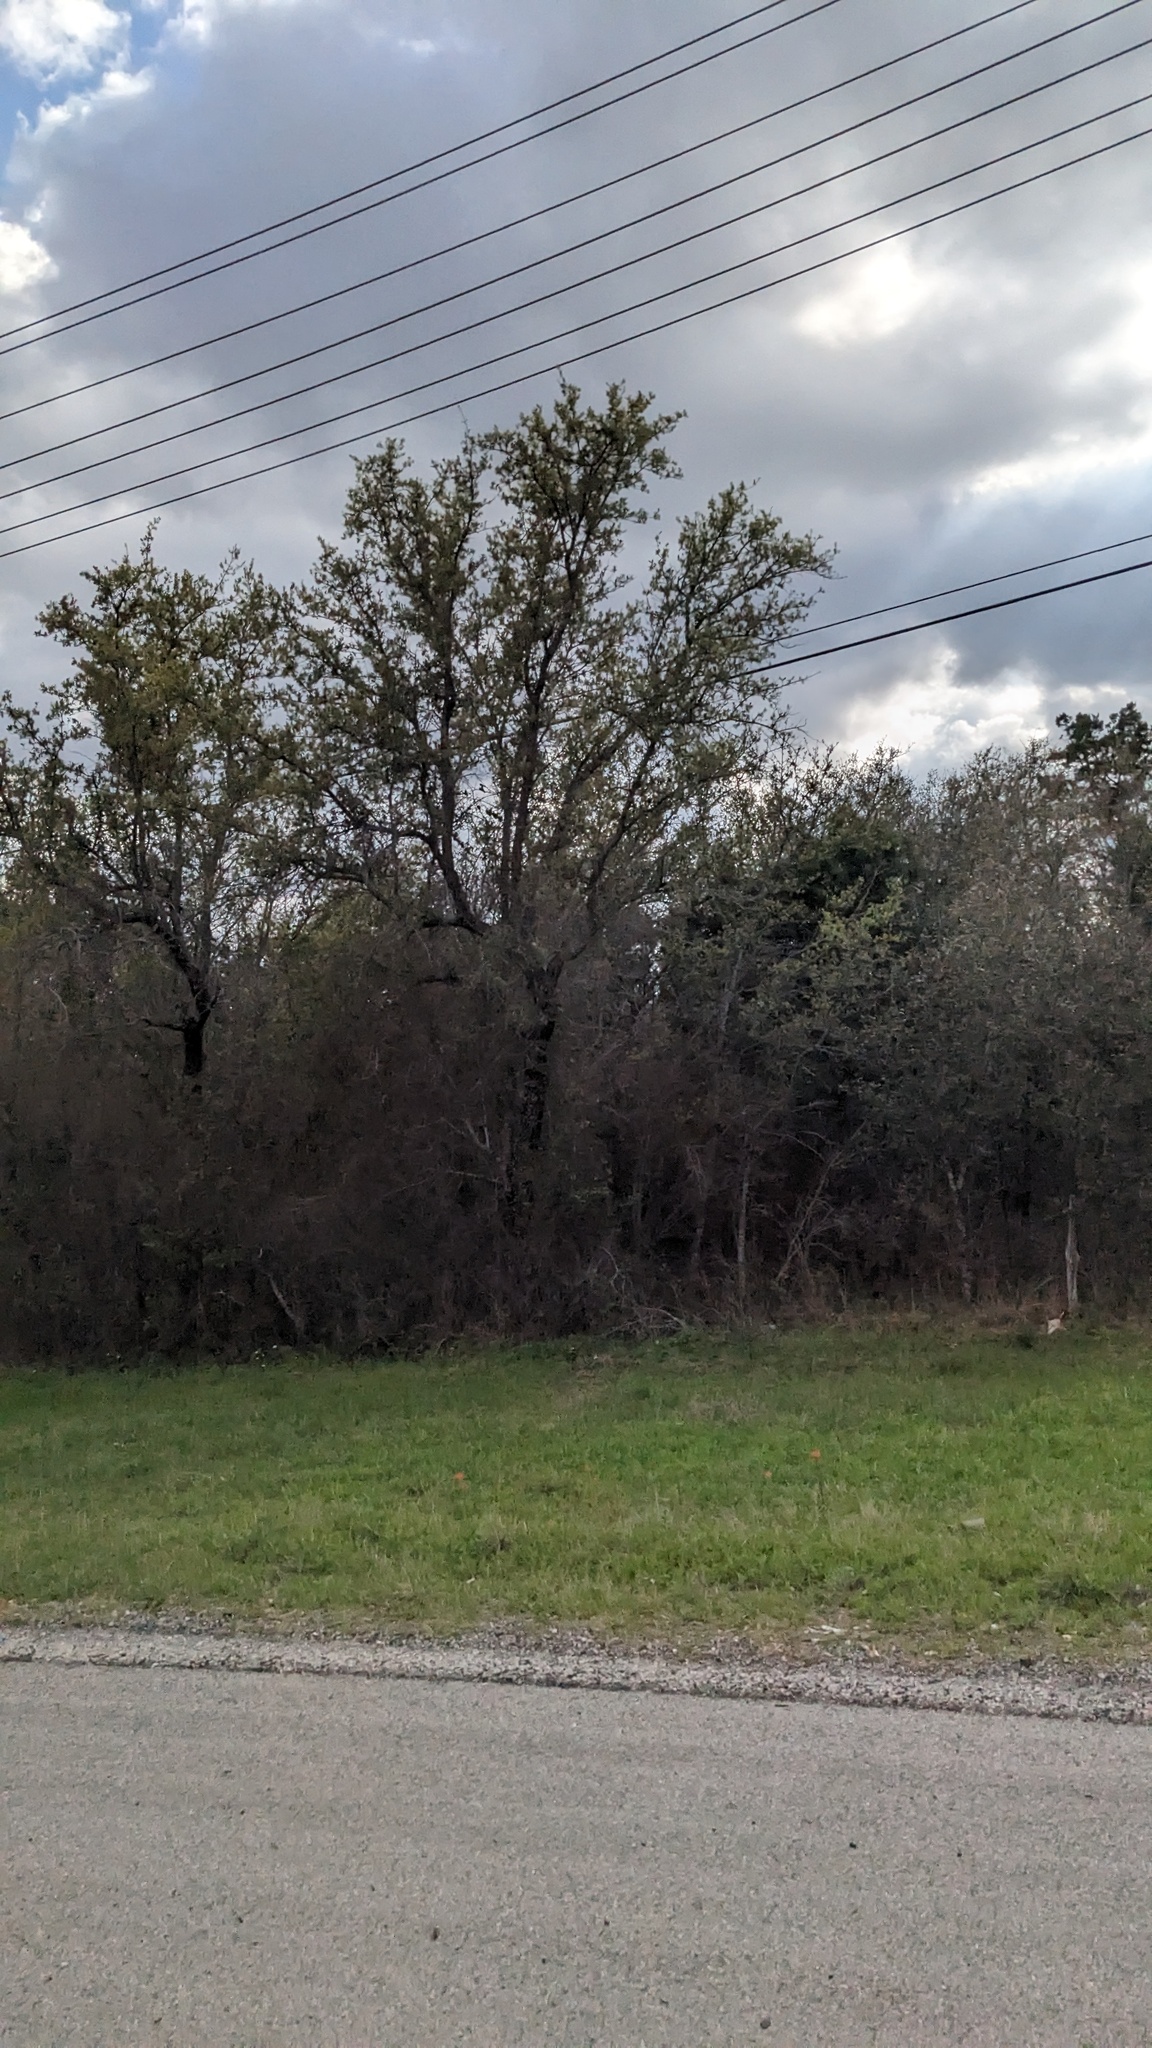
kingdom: Plantae
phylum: Tracheophyta
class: Magnoliopsida
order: Fagales
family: Fagaceae
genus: Quercus
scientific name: Quercus fusiformis
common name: Texas live oak
